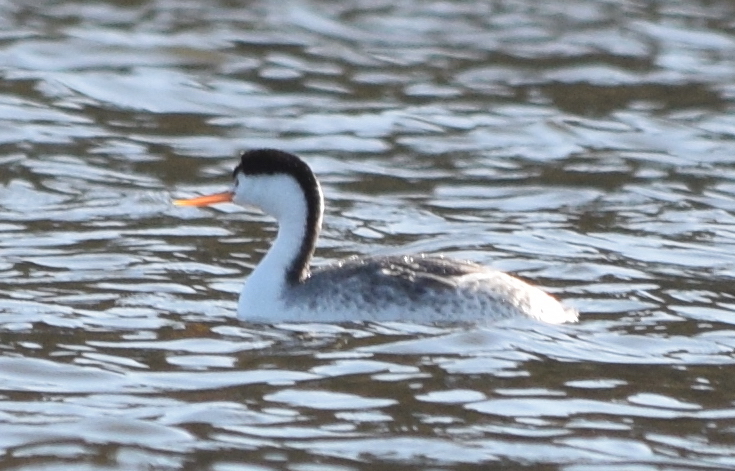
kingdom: Animalia
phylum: Chordata
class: Aves
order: Podicipediformes
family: Podicipedidae
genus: Aechmophorus
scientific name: Aechmophorus clarkii
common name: Clark's grebe
